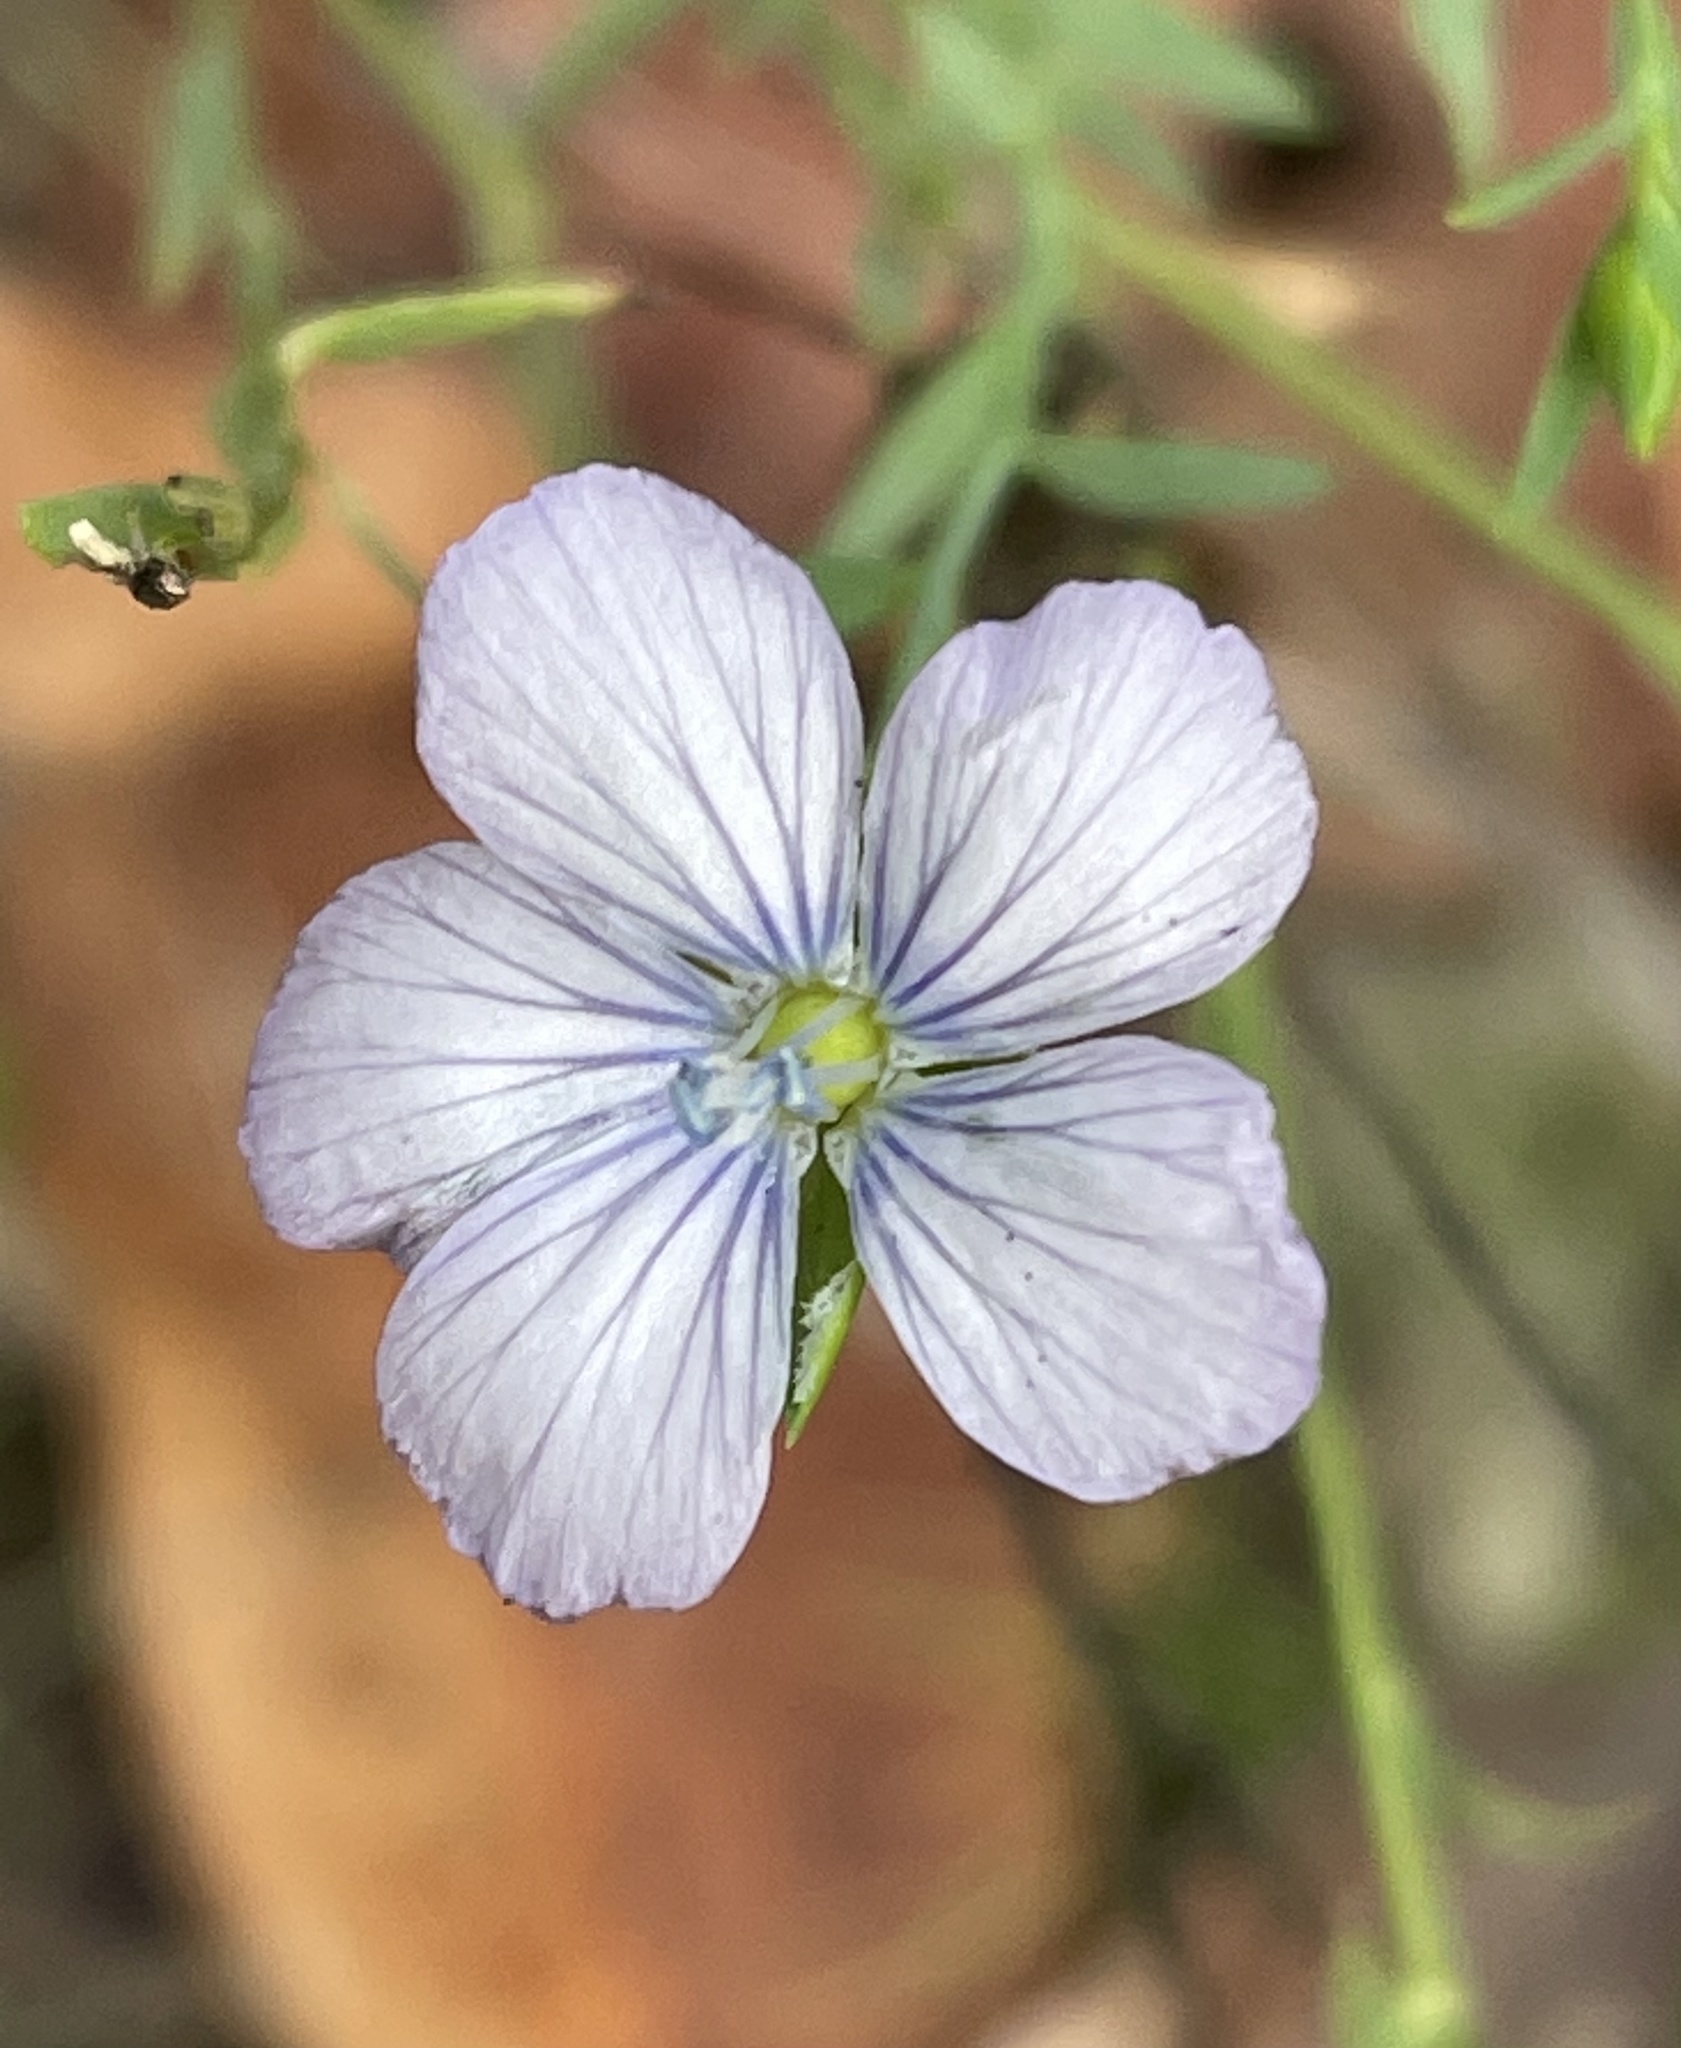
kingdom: Plantae
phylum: Tracheophyta
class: Magnoliopsida
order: Malpighiales
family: Linaceae
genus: Linum
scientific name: Linum bienne
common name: Pale flax
